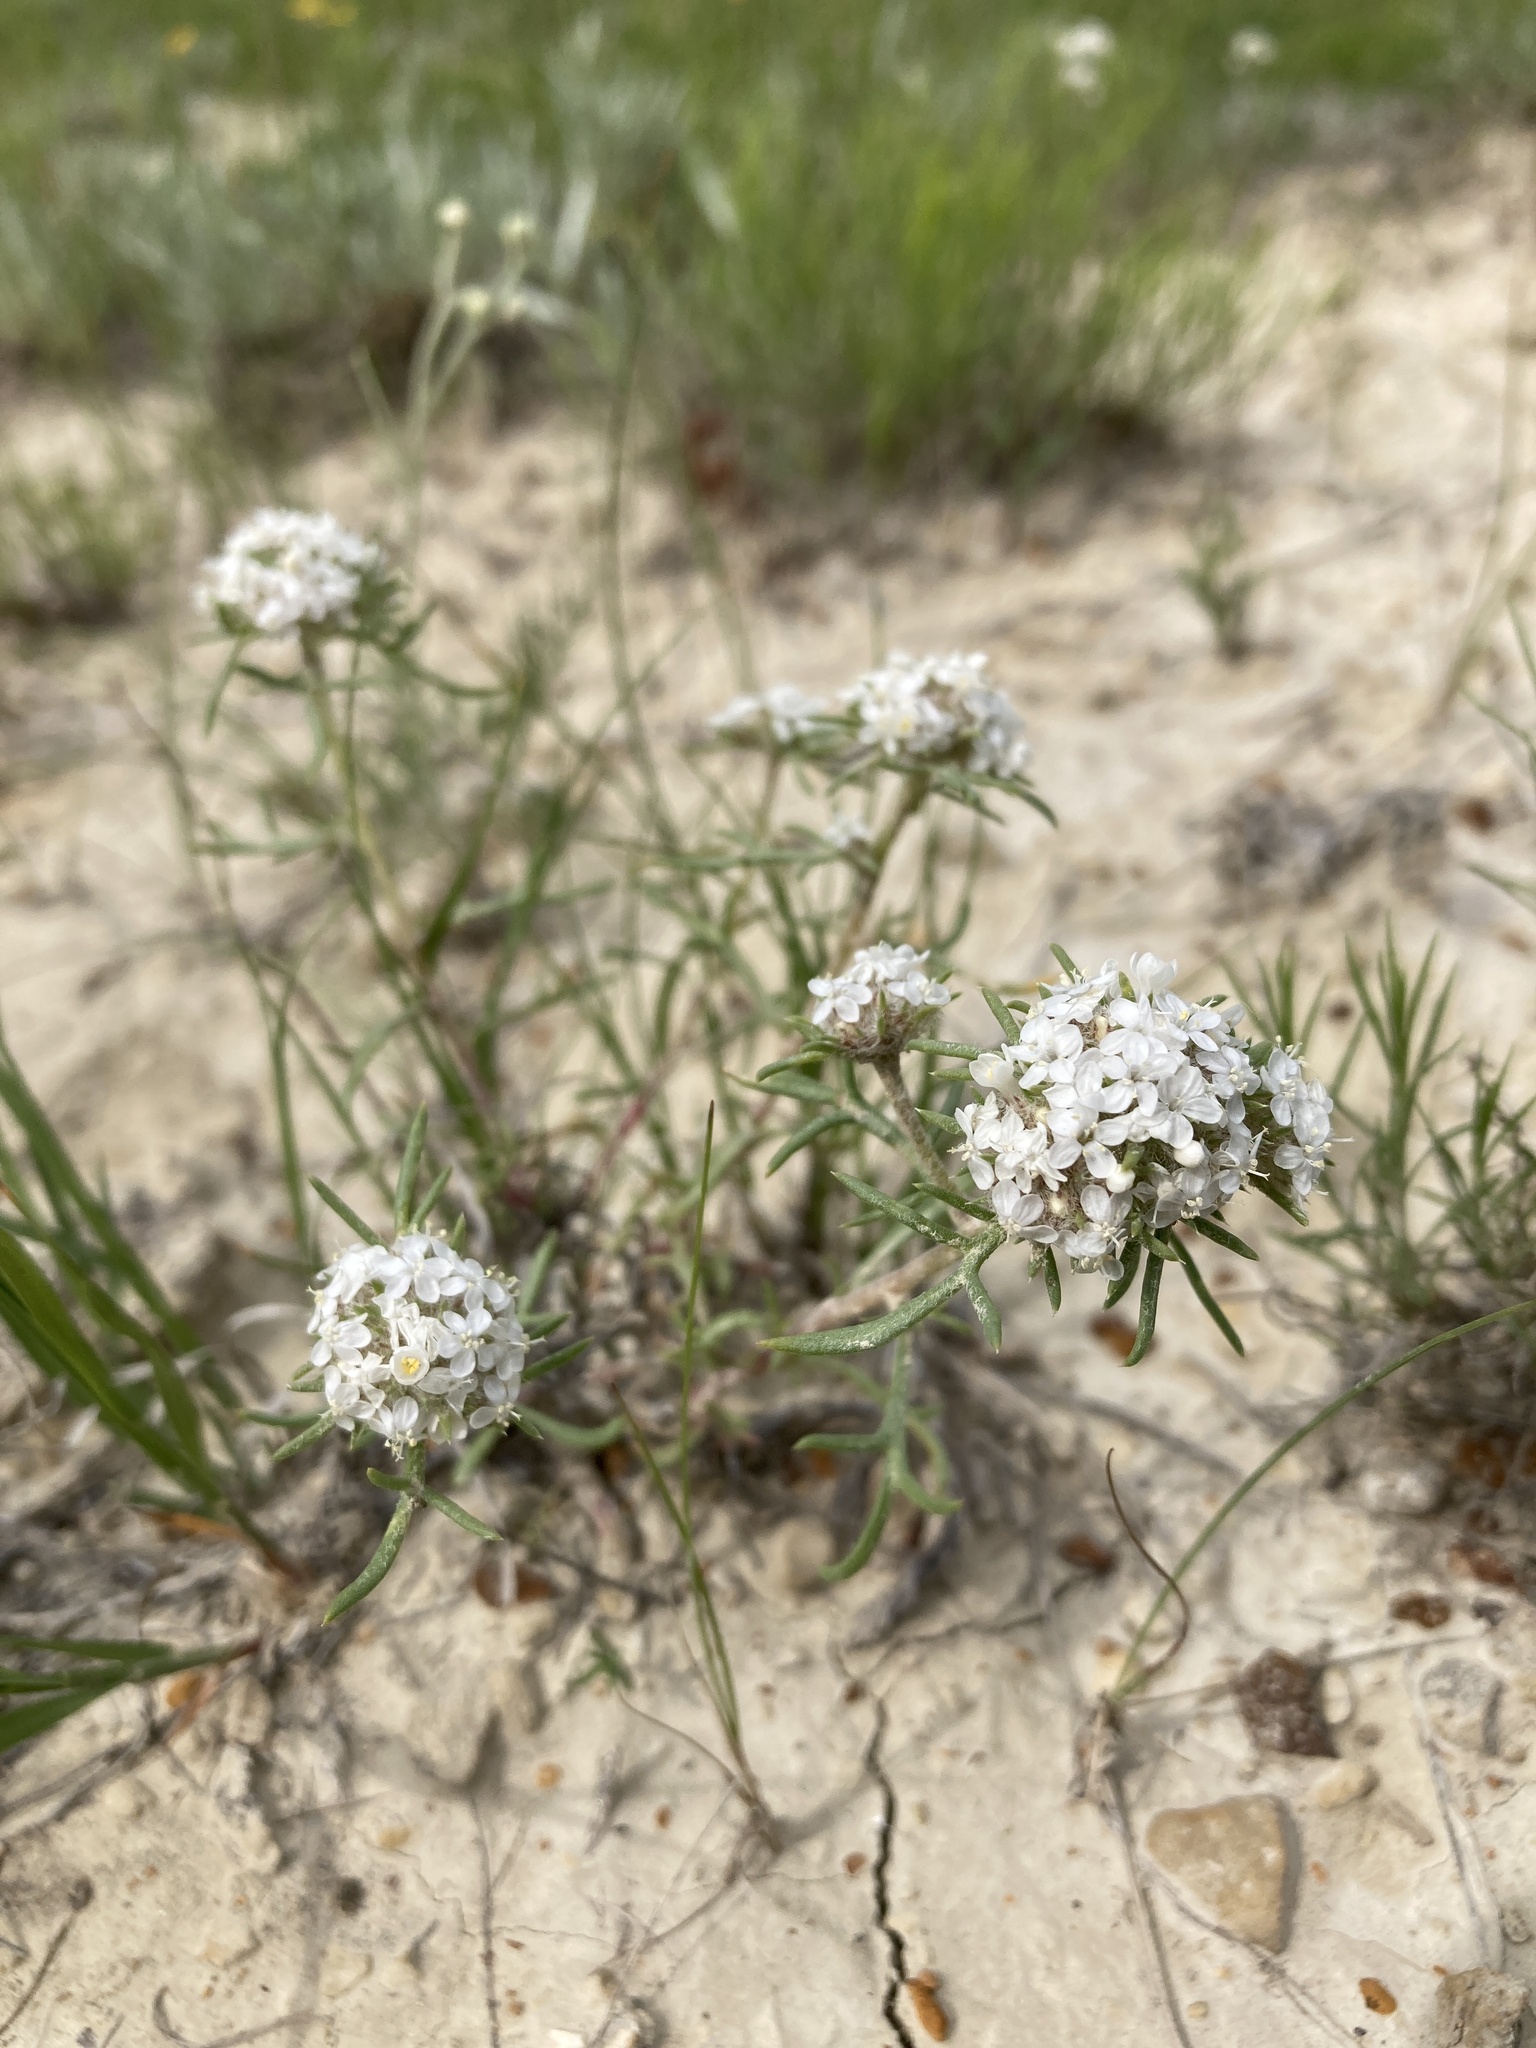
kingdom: Plantae
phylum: Tracheophyta
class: Magnoliopsida
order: Ericales
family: Polemoniaceae
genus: Ipomopsis
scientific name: Ipomopsis congesta
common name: Ball-head gilia
